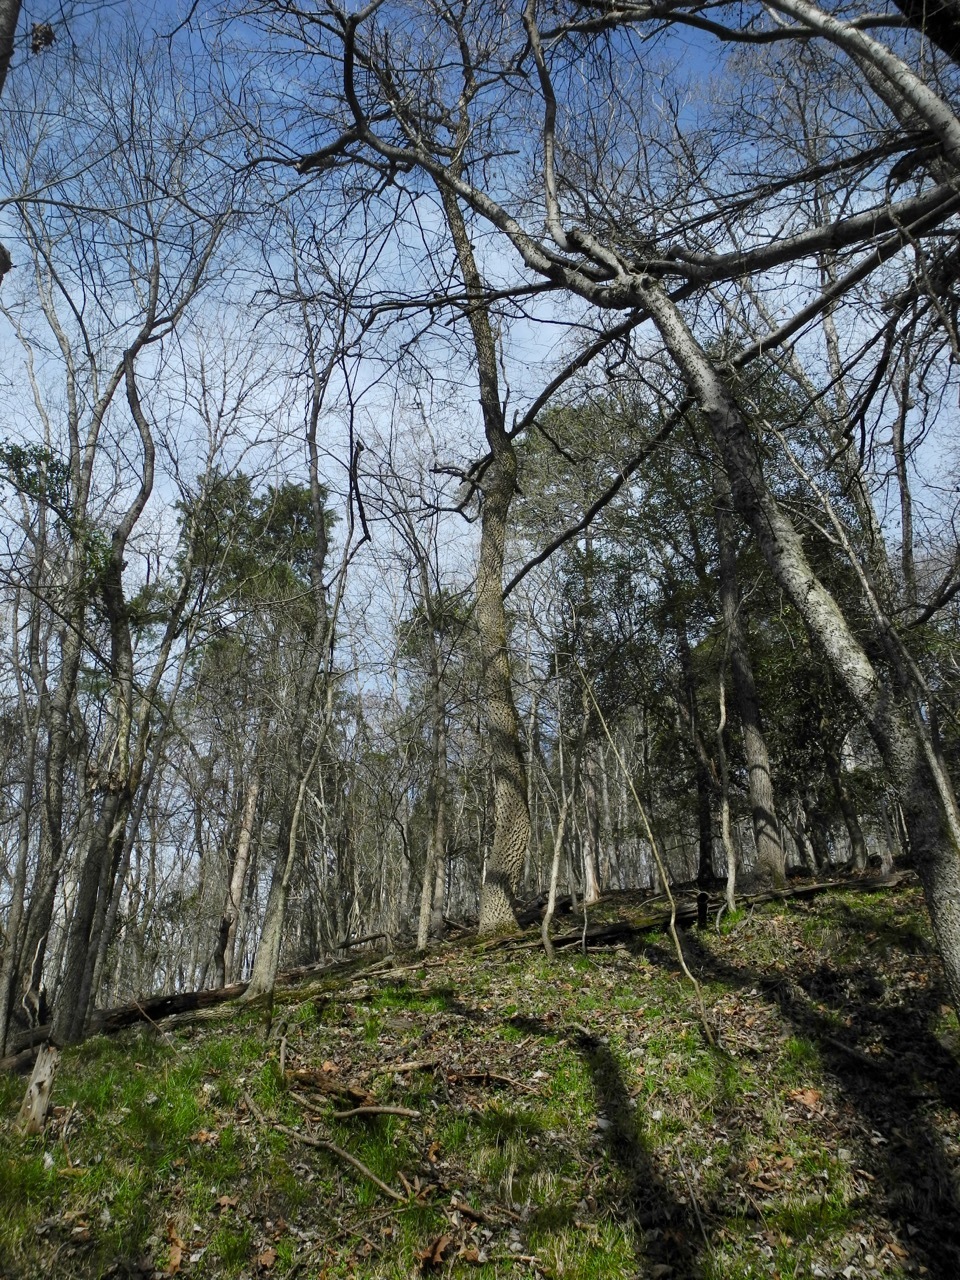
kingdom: Plantae
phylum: Tracheophyta
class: Magnoliopsida
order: Cornales
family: Nyssaceae
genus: Nyssa
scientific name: Nyssa sylvatica
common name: Black tupelo
